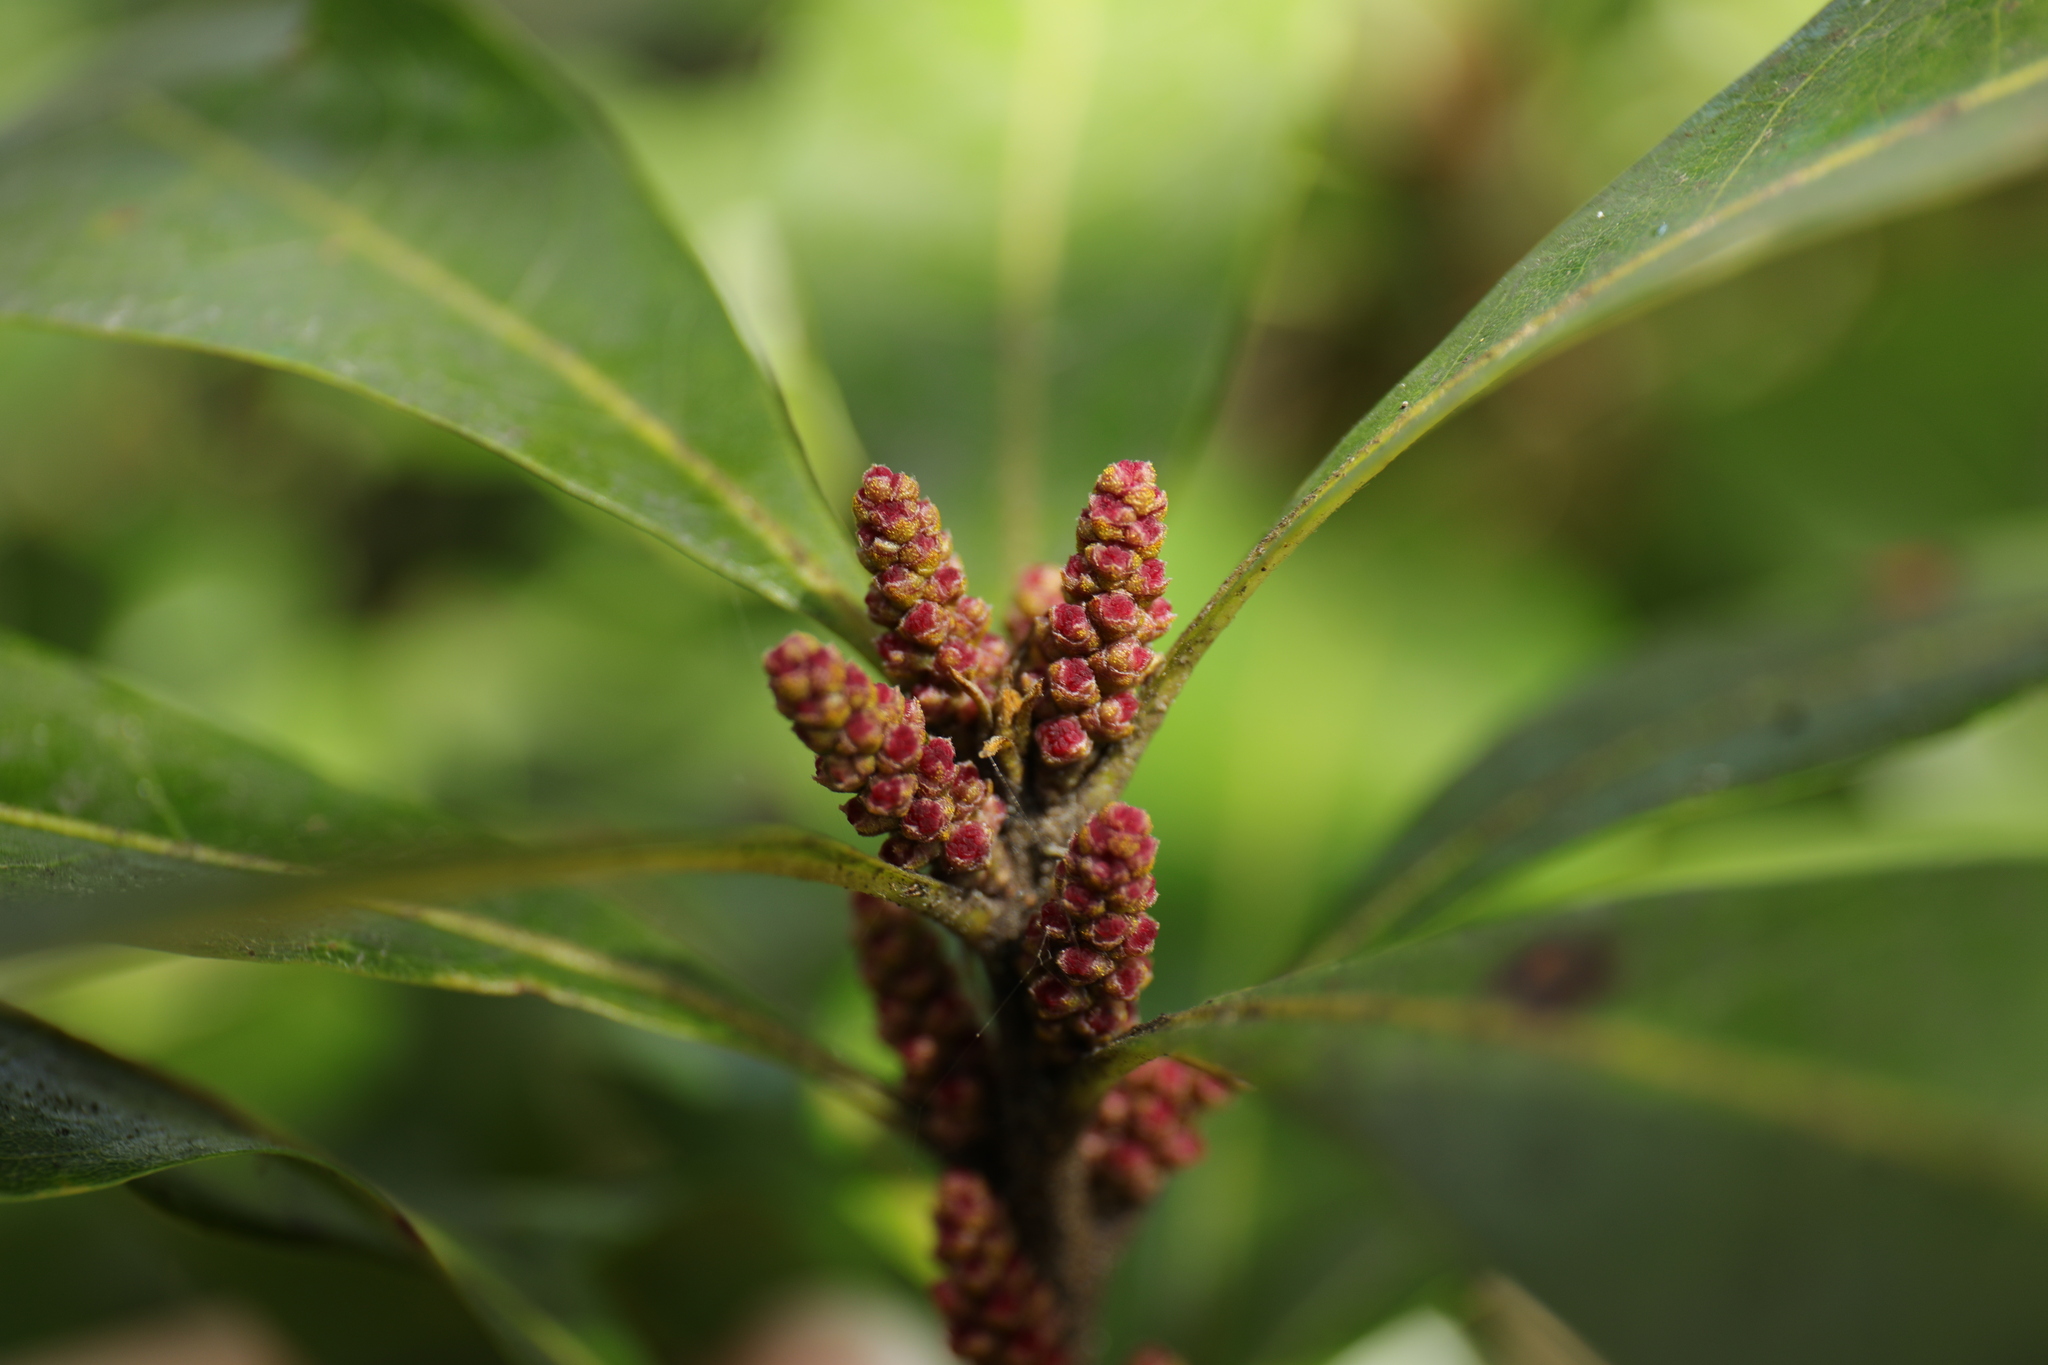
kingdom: Plantae
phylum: Tracheophyta
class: Magnoliopsida
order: Fagales
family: Myricaceae
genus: Morella
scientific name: Morella rubra
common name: Red bayberry
